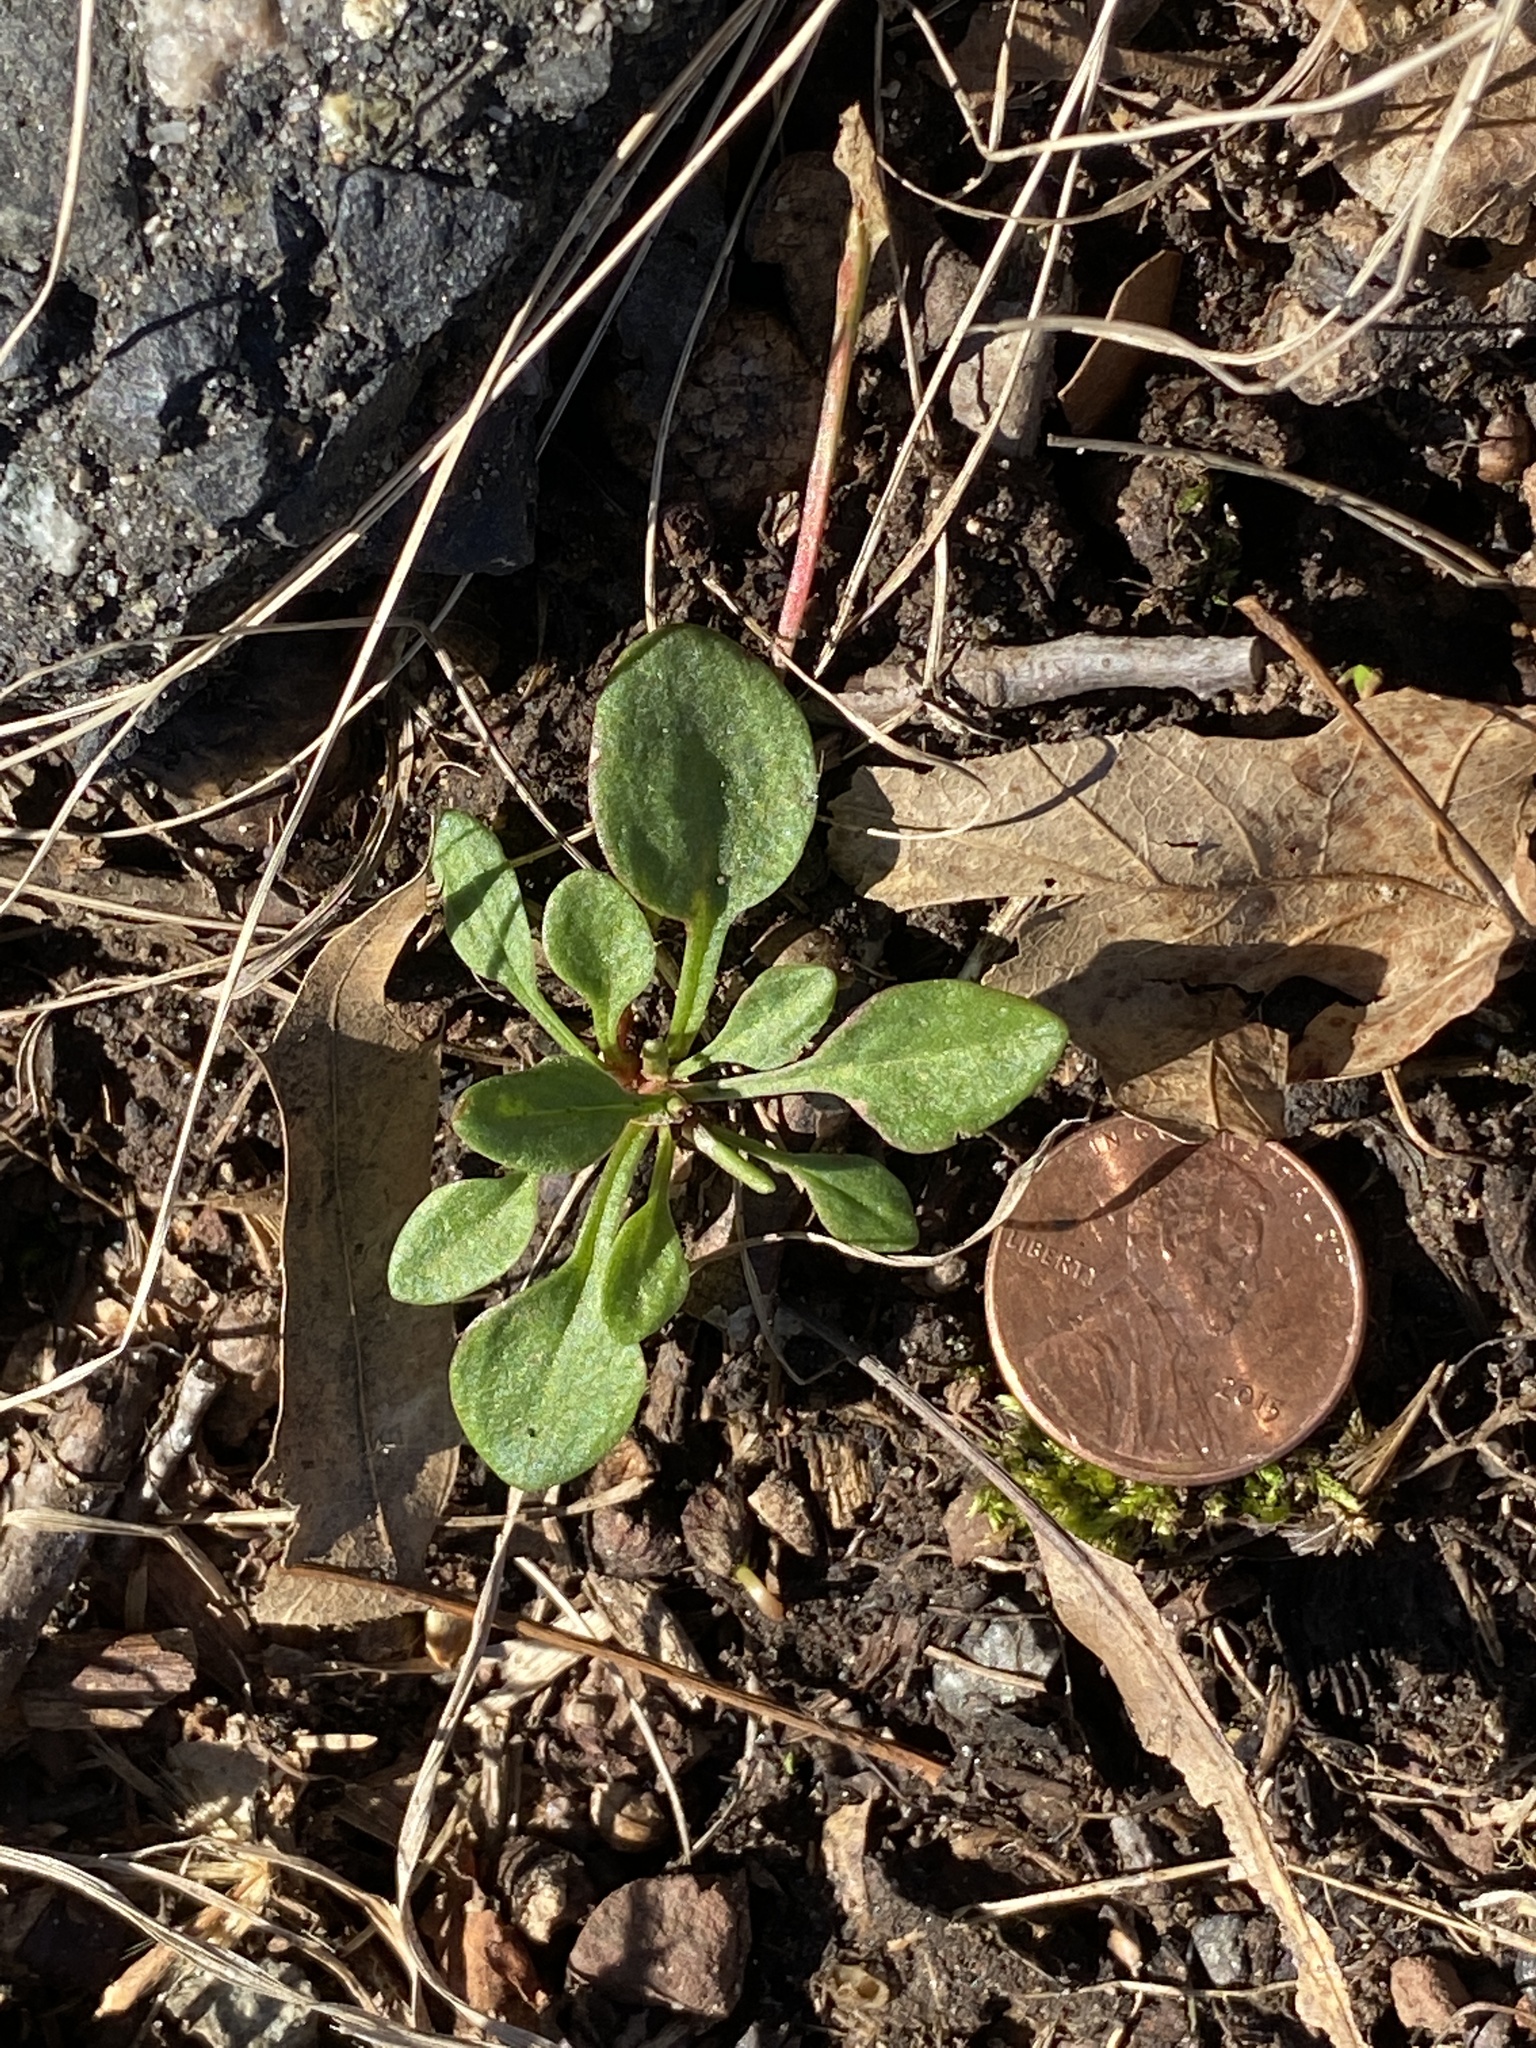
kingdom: Plantae
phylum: Tracheophyta
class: Magnoliopsida
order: Caryophyllales
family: Polygonaceae
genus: Rumex
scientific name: Rumex acetosella
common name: Common sheep sorrel
